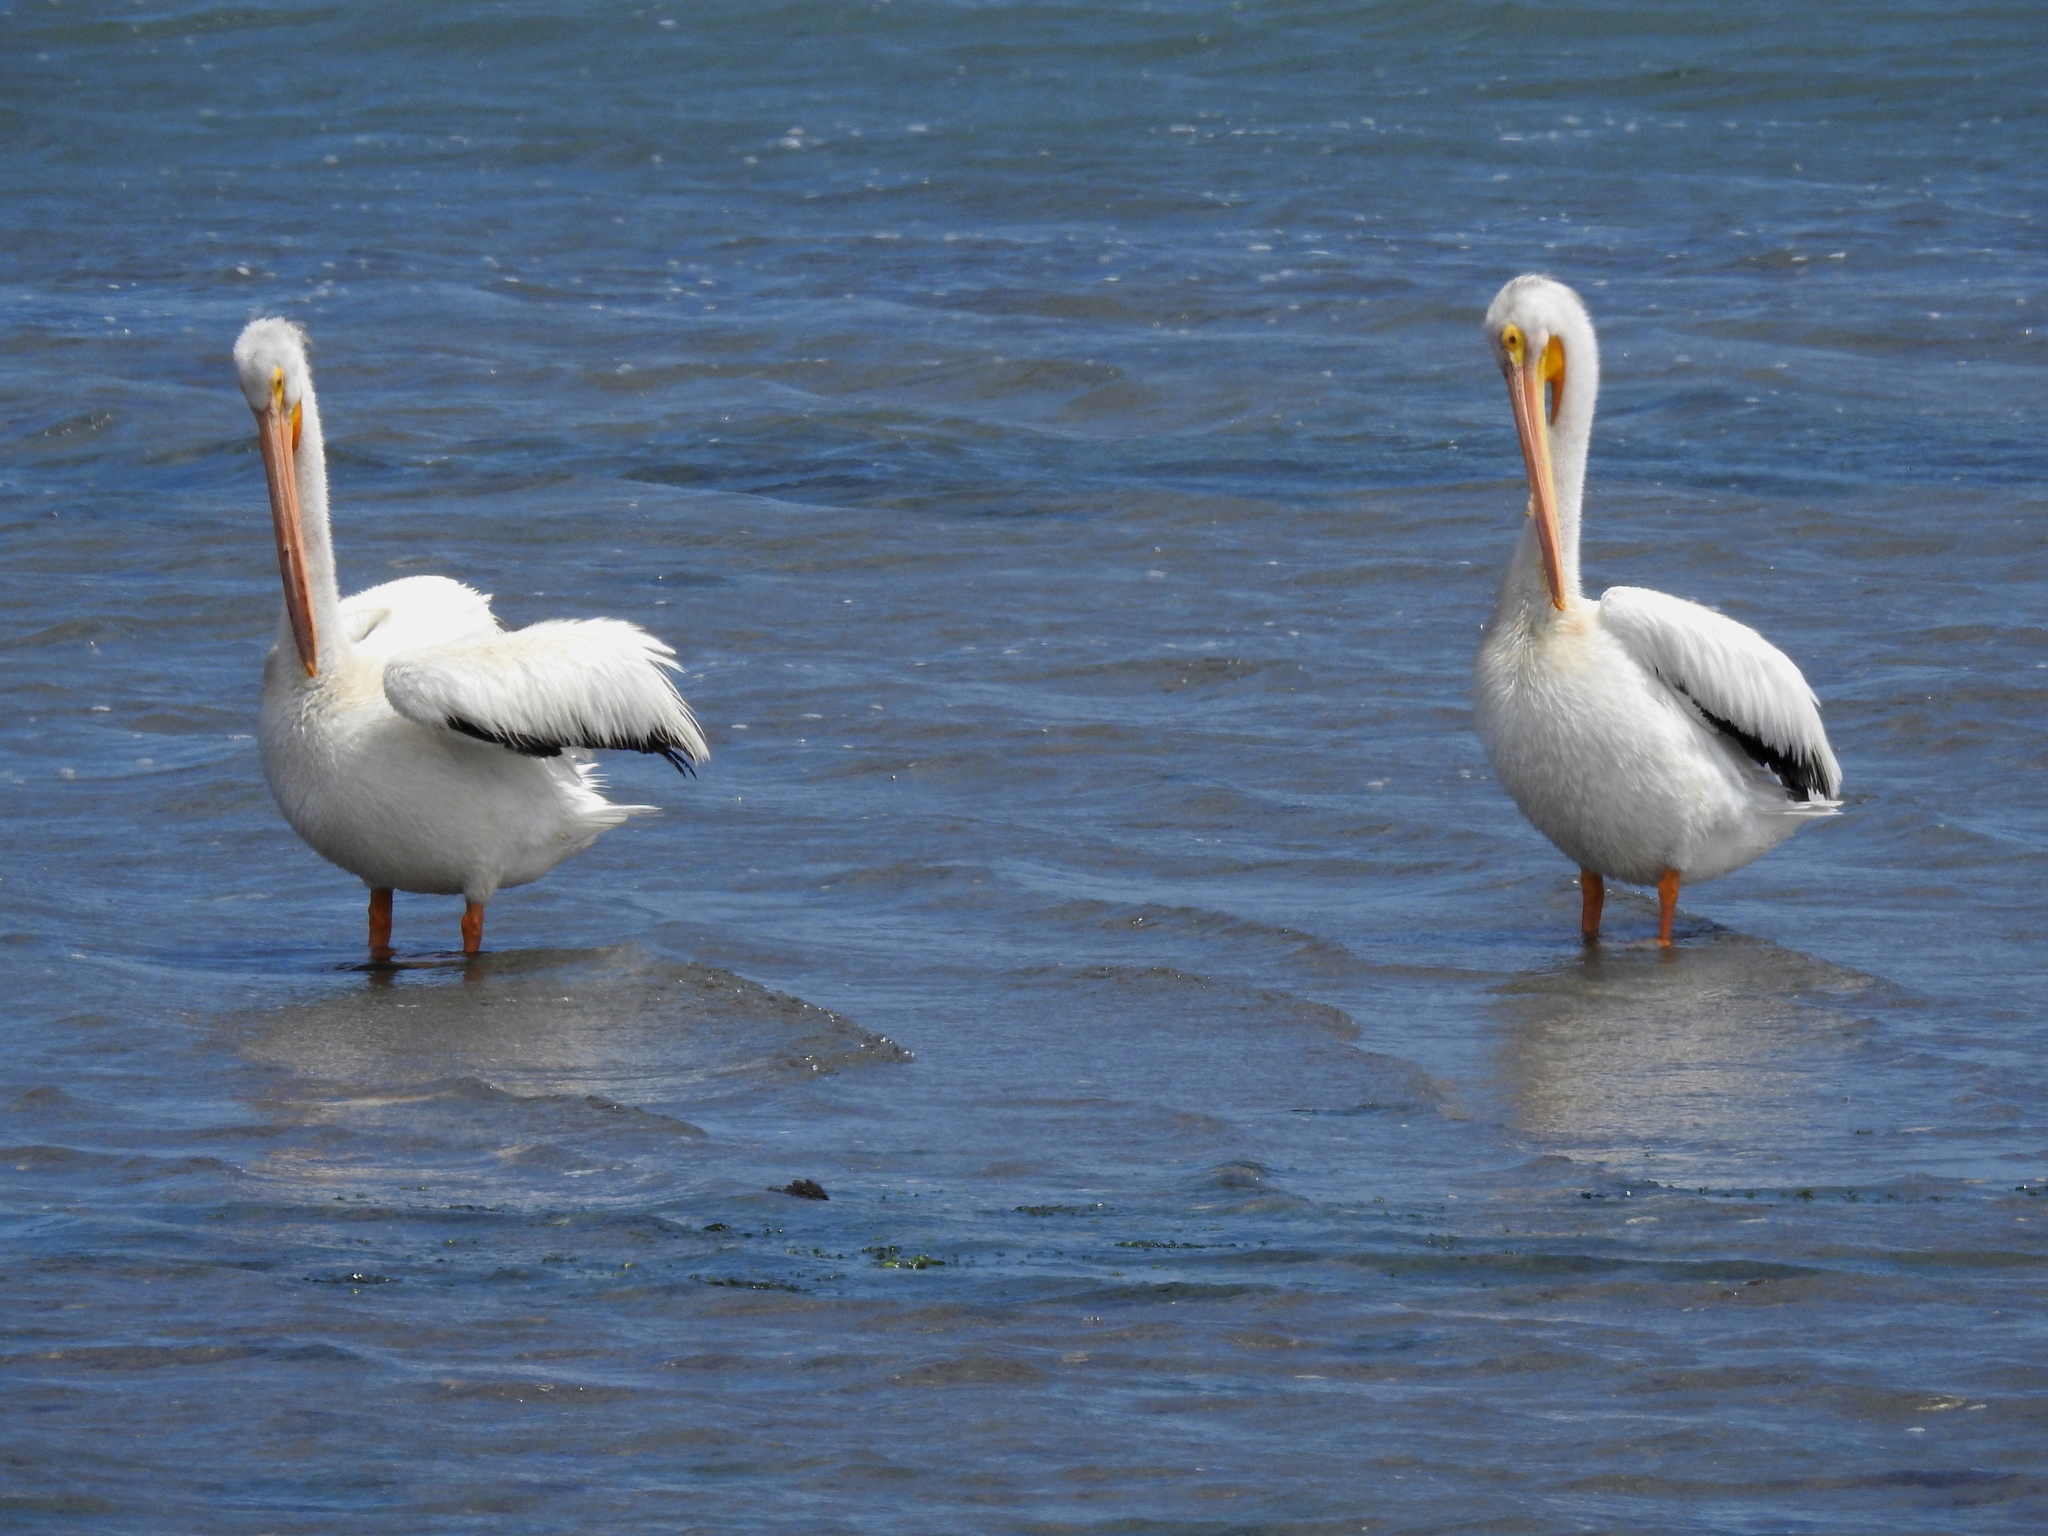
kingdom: Animalia
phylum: Chordata
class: Aves
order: Pelecaniformes
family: Pelecanidae
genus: Pelecanus
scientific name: Pelecanus erythrorhynchos
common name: American white pelican
